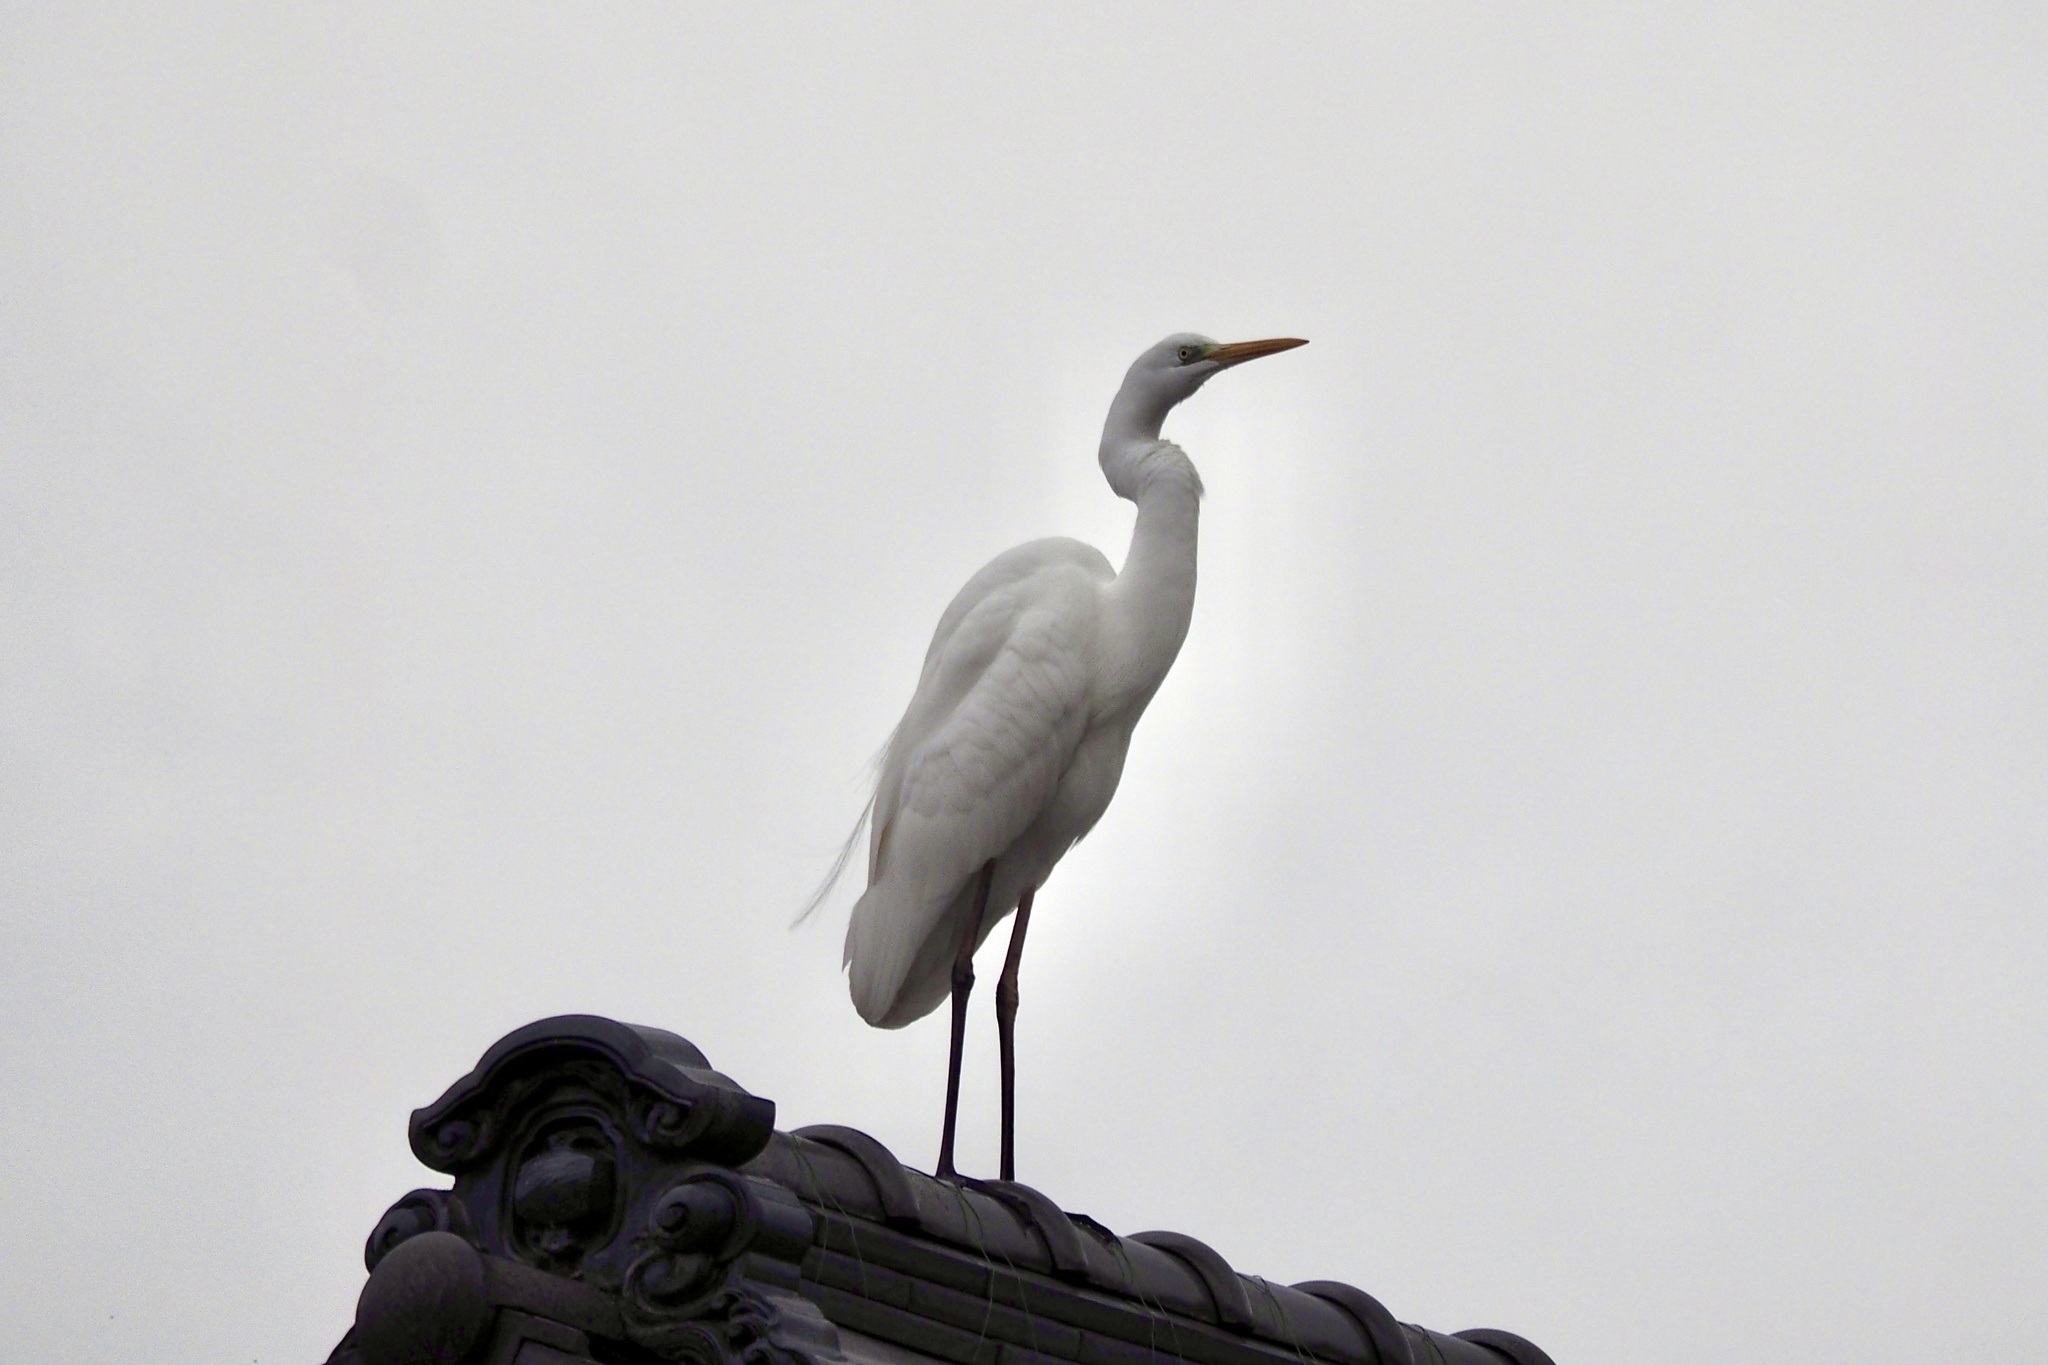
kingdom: Animalia
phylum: Chordata
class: Aves
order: Pelecaniformes
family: Ardeidae
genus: Ardea
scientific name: Ardea alba
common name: Great egret
